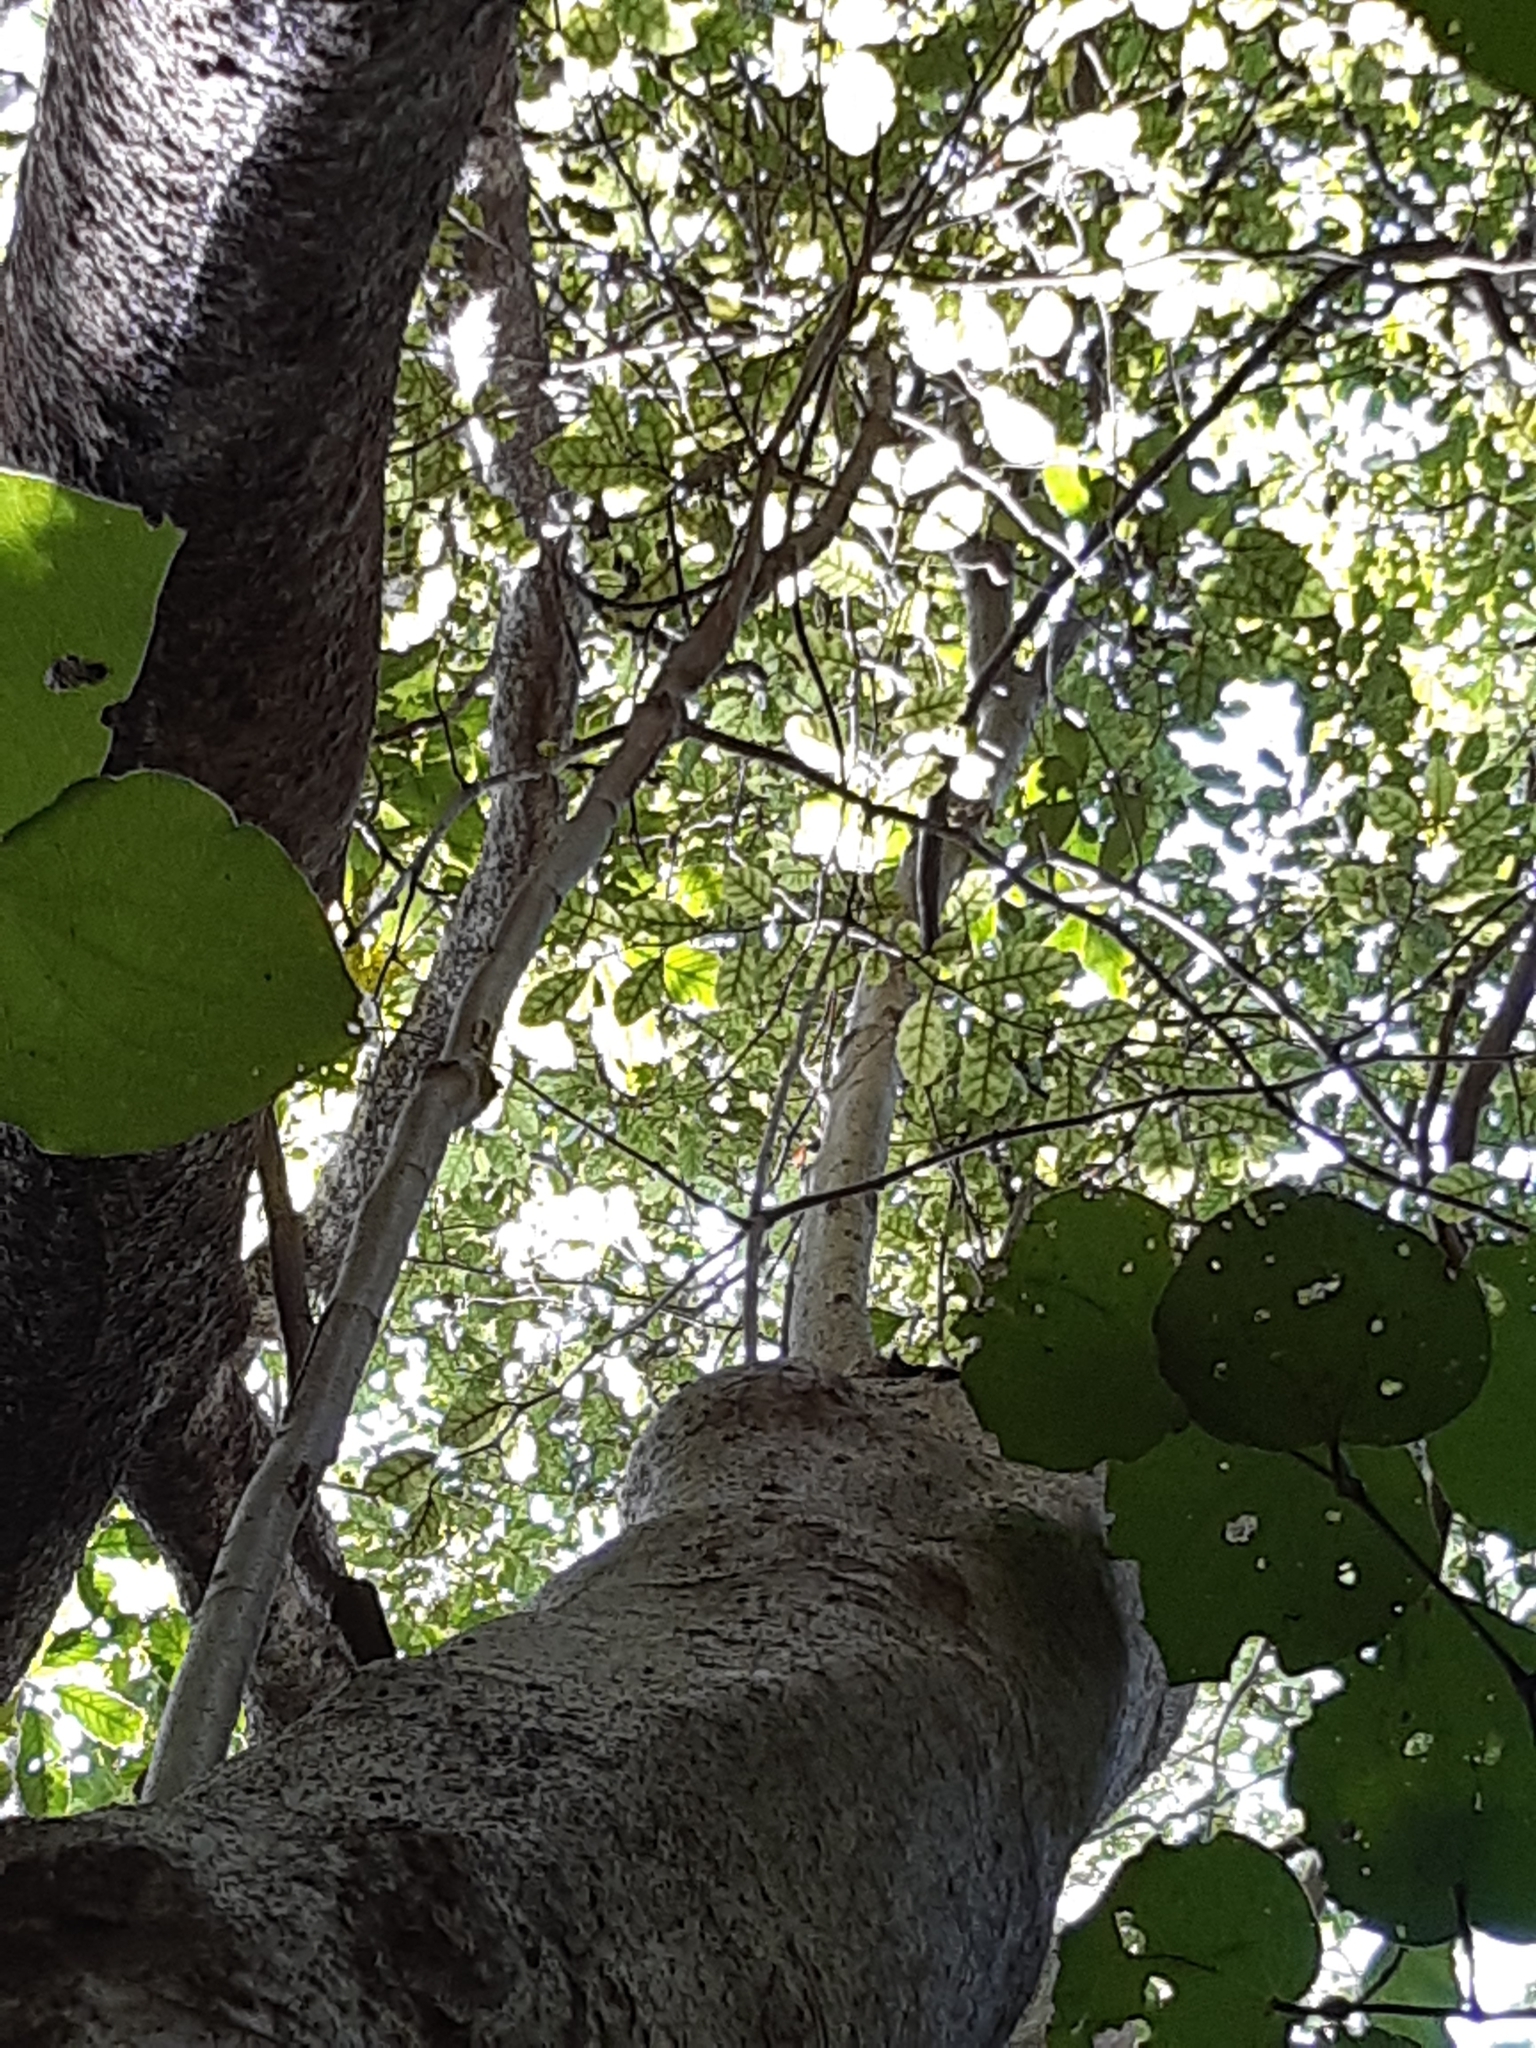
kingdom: Plantae
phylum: Tracheophyta
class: Magnoliopsida
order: Piperales
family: Piperaceae
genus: Macropiper
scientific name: Macropiper excelsum
